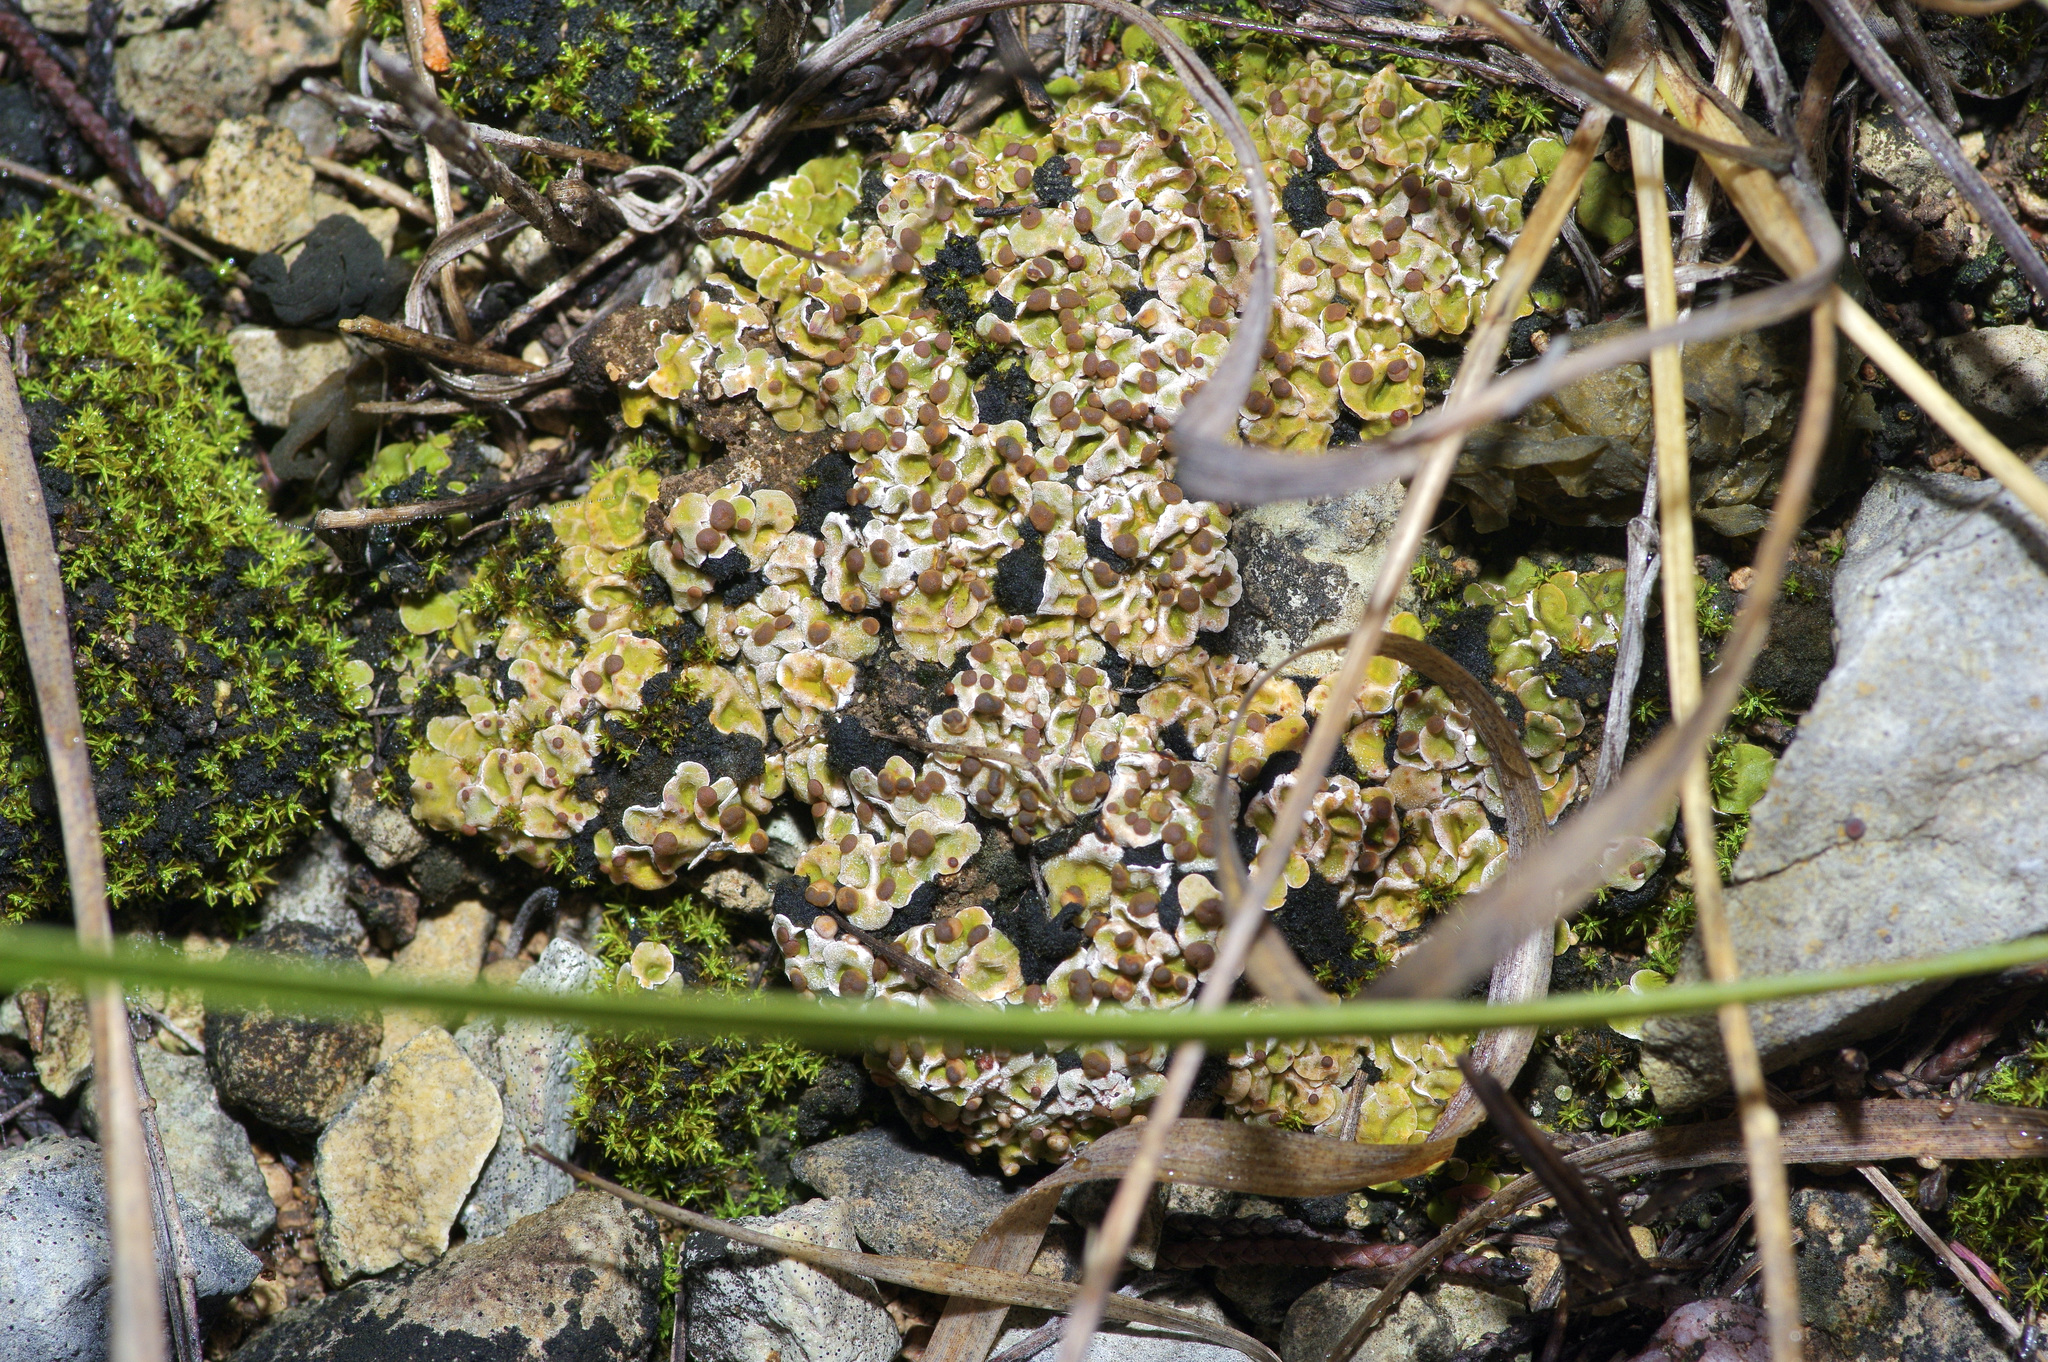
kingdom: Fungi
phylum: Ascomycota
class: Lecanoromycetes
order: Lecanorales
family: Psoraceae
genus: Psora
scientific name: Psora pseudorussellii
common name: Bordered scale lichen
